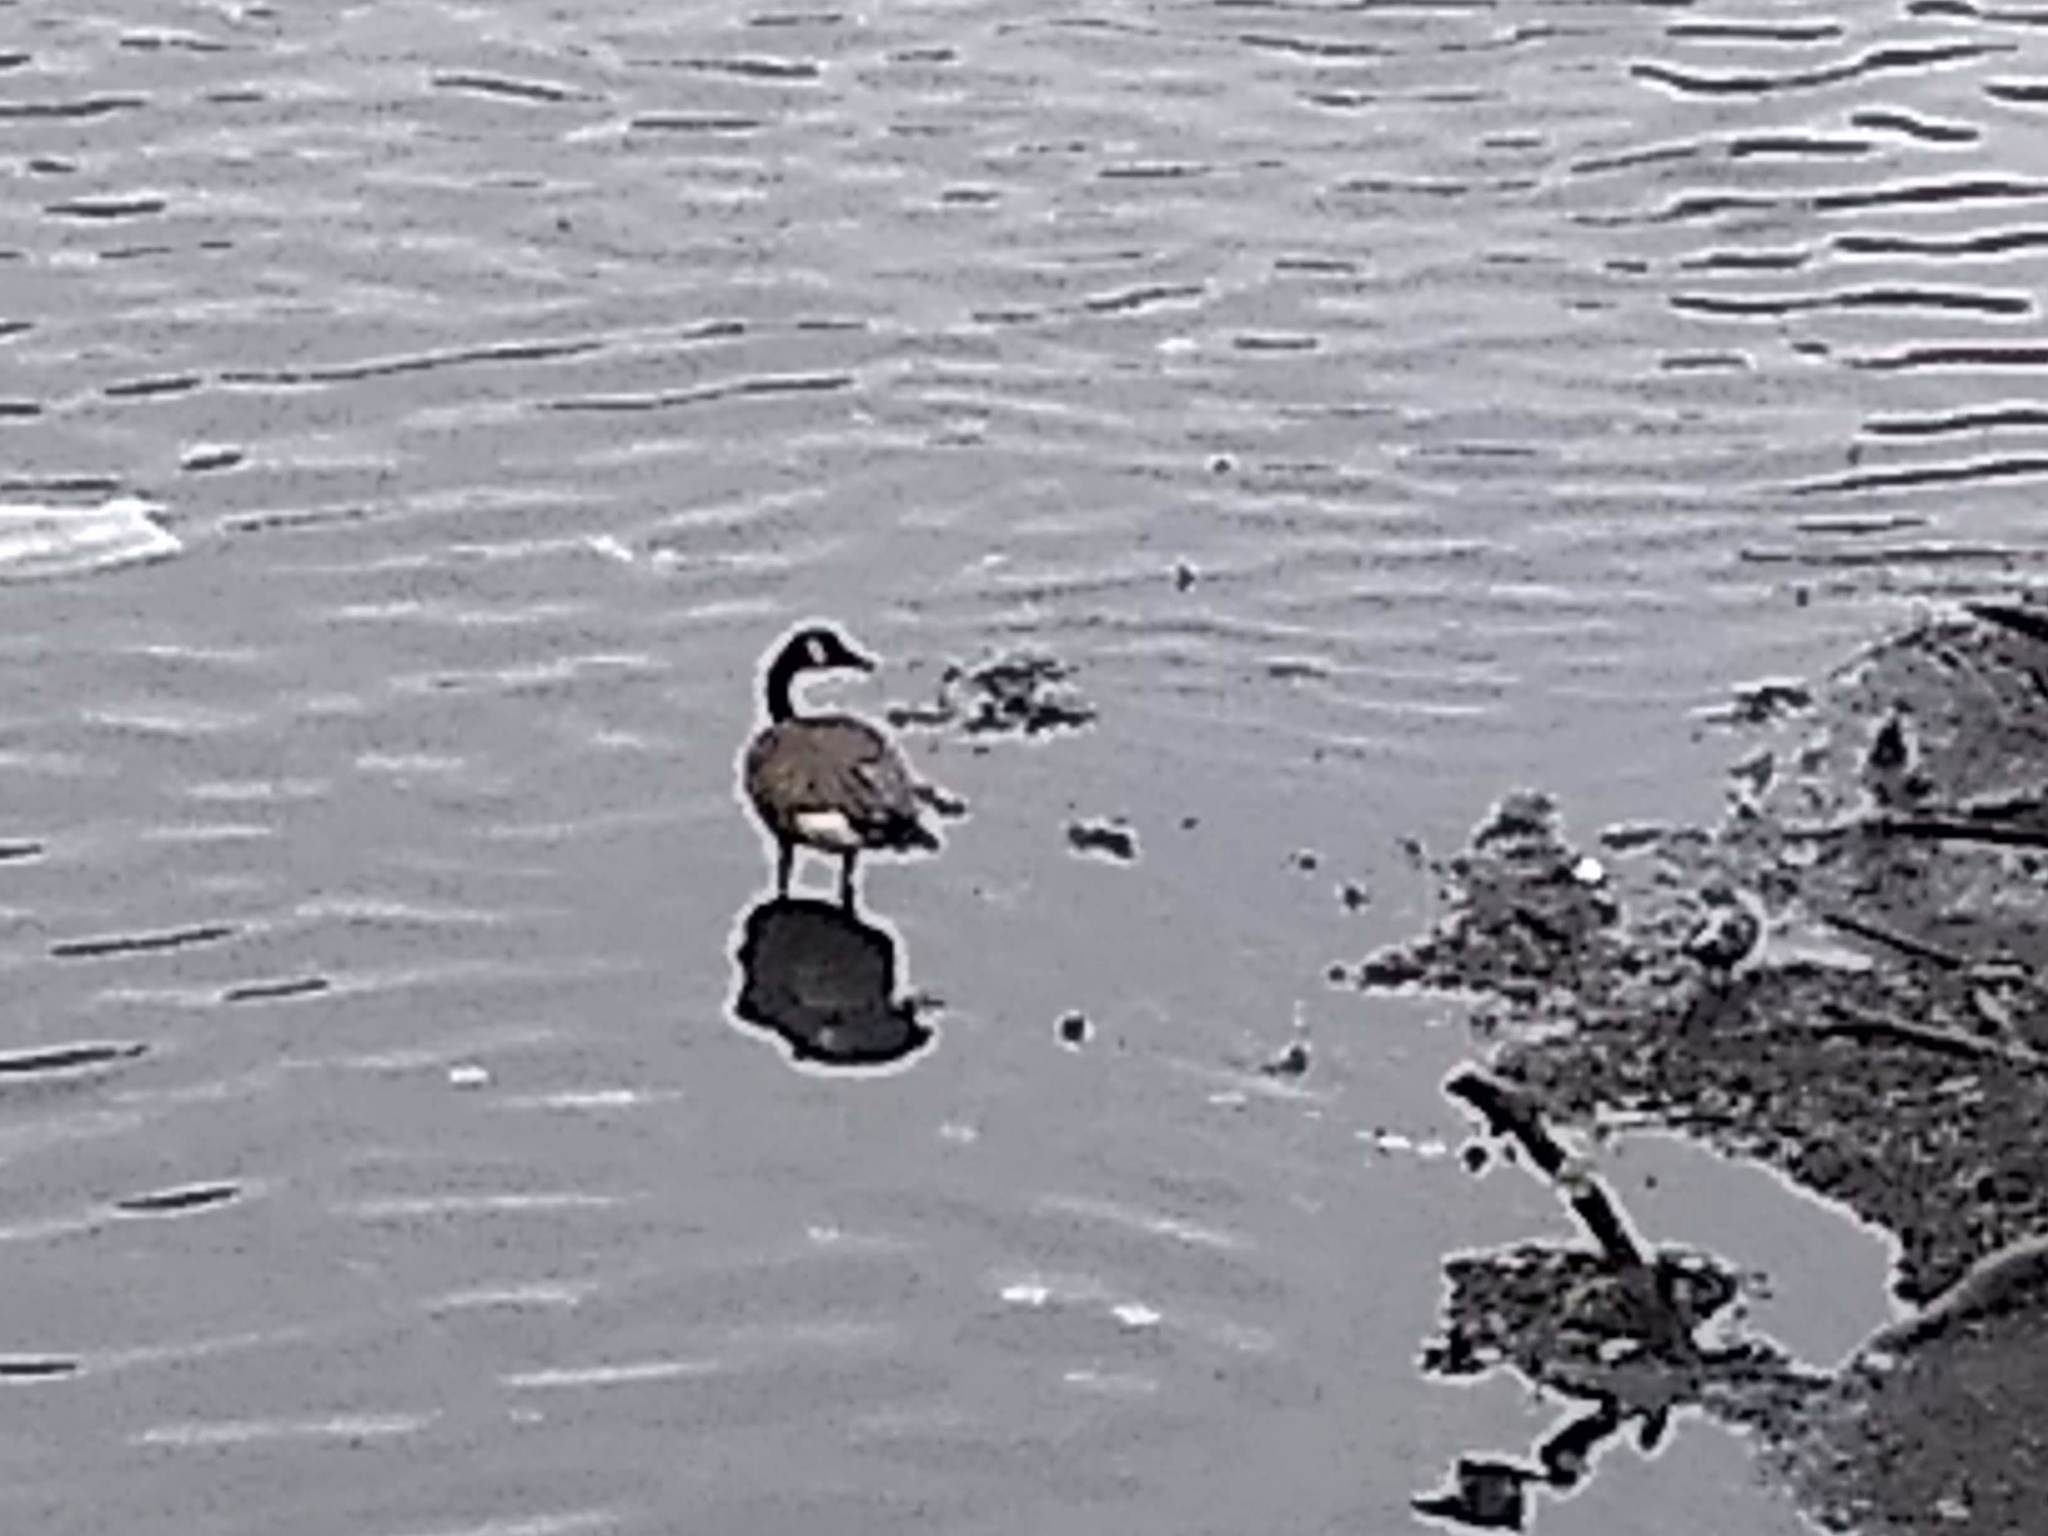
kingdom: Animalia
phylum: Chordata
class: Aves
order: Anseriformes
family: Anatidae
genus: Branta
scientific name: Branta canadensis
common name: Canada goose
